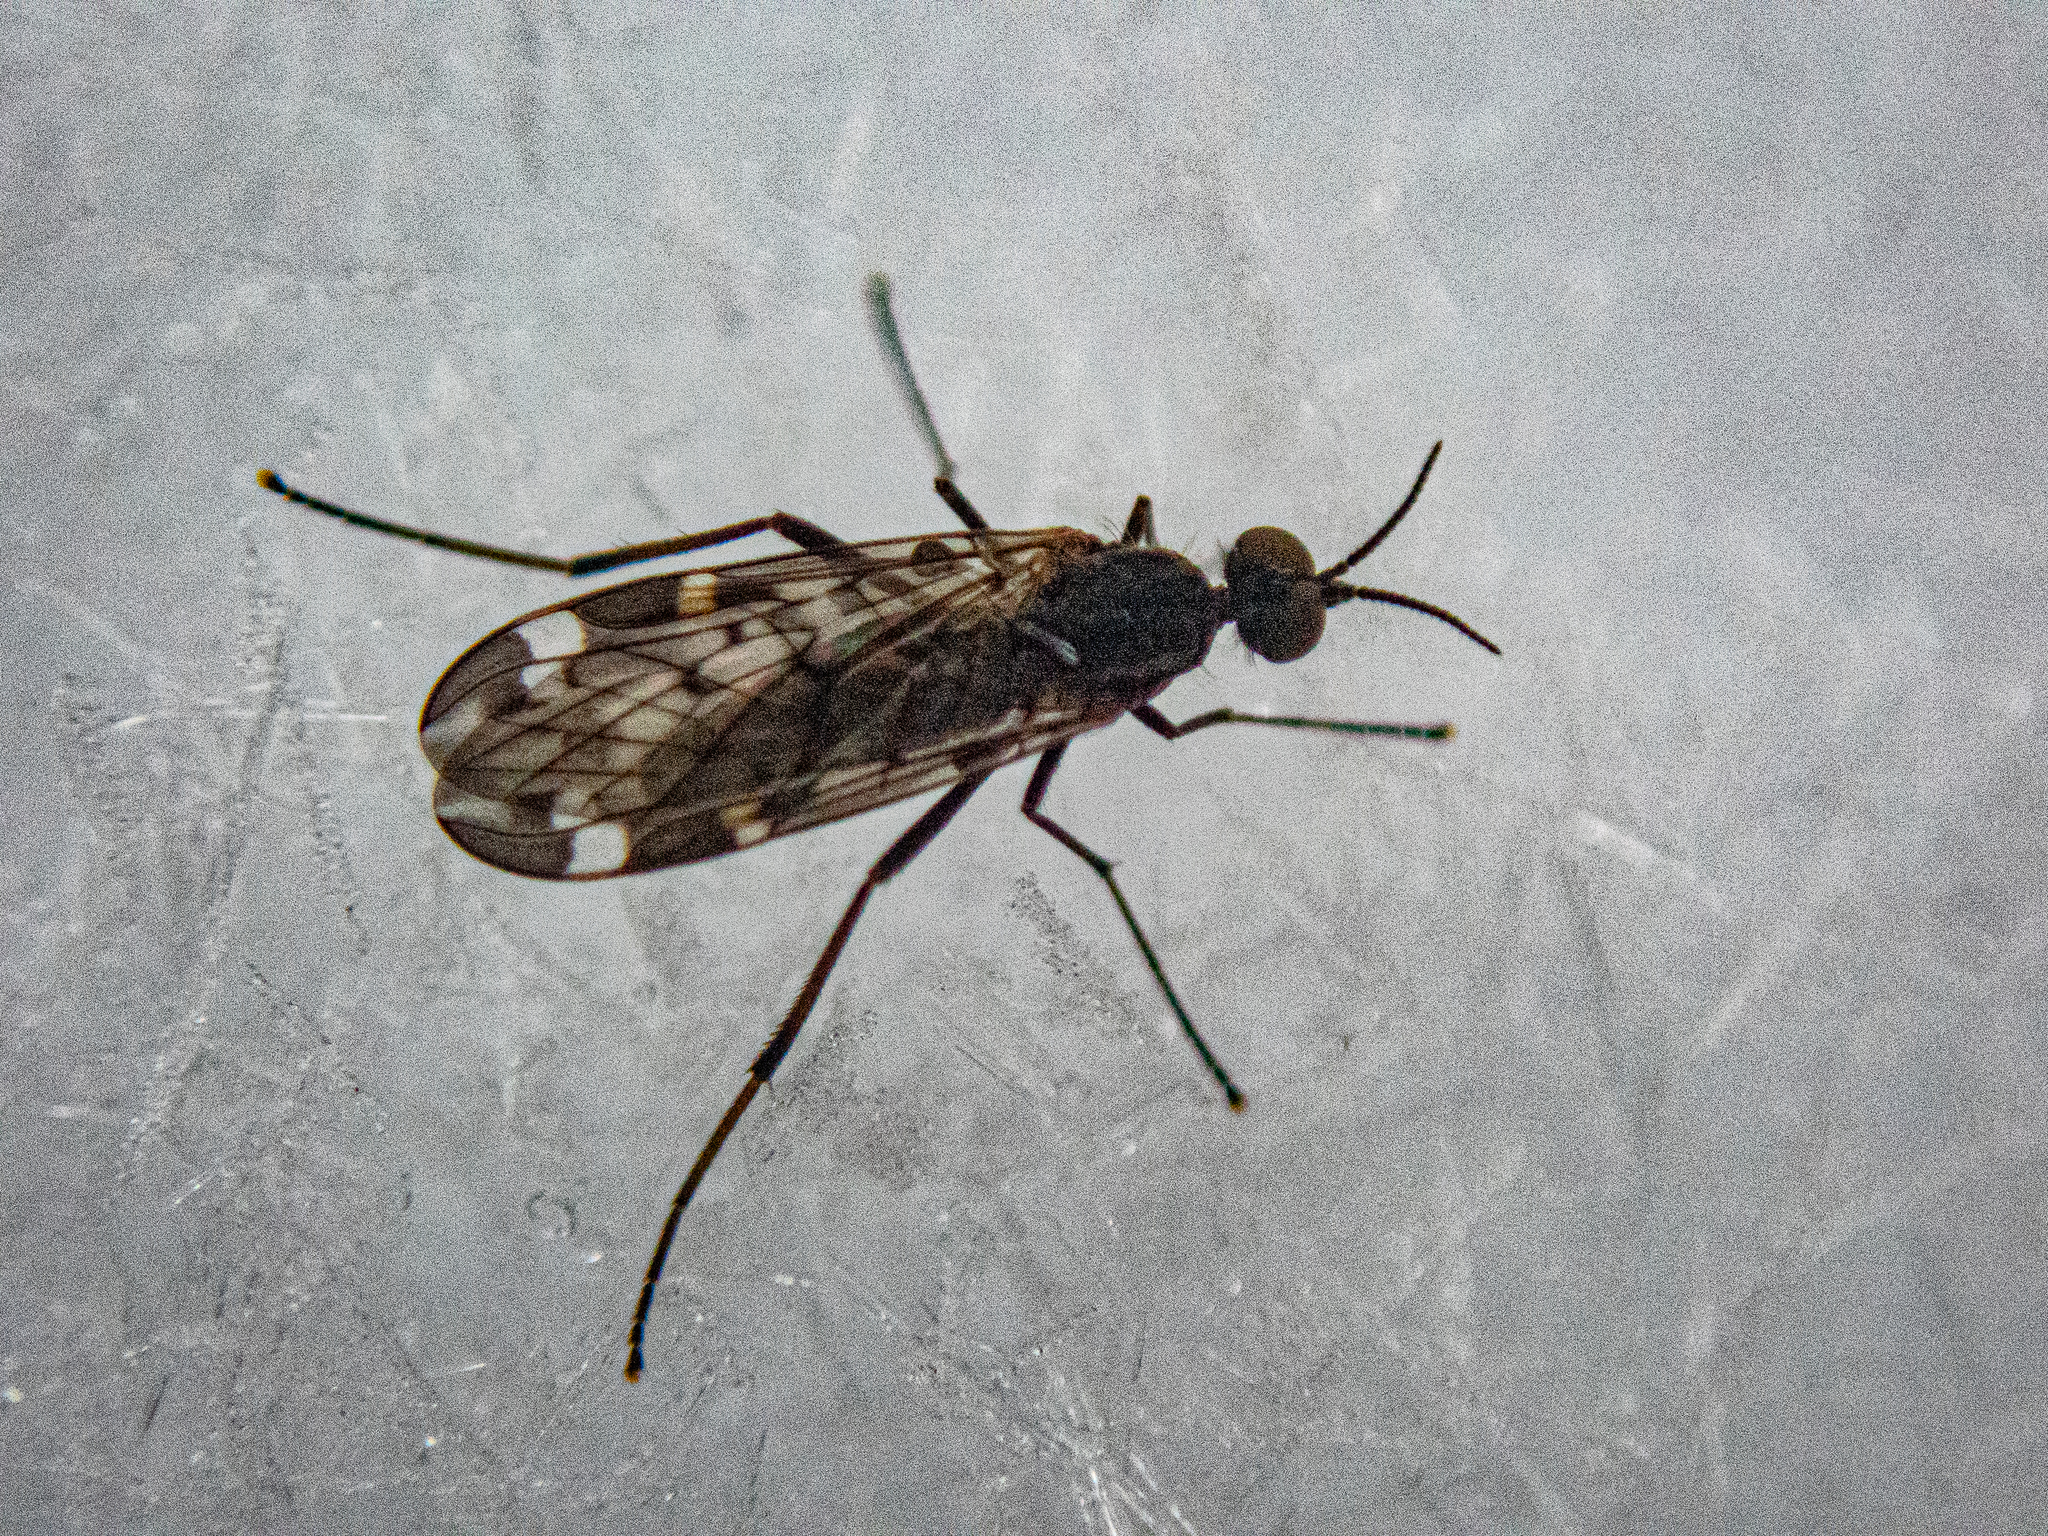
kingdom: Animalia
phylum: Arthropoda
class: Insecta
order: Diptera
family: Anisopodidae
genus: Sylvicola
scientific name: Sylvicola alternata
